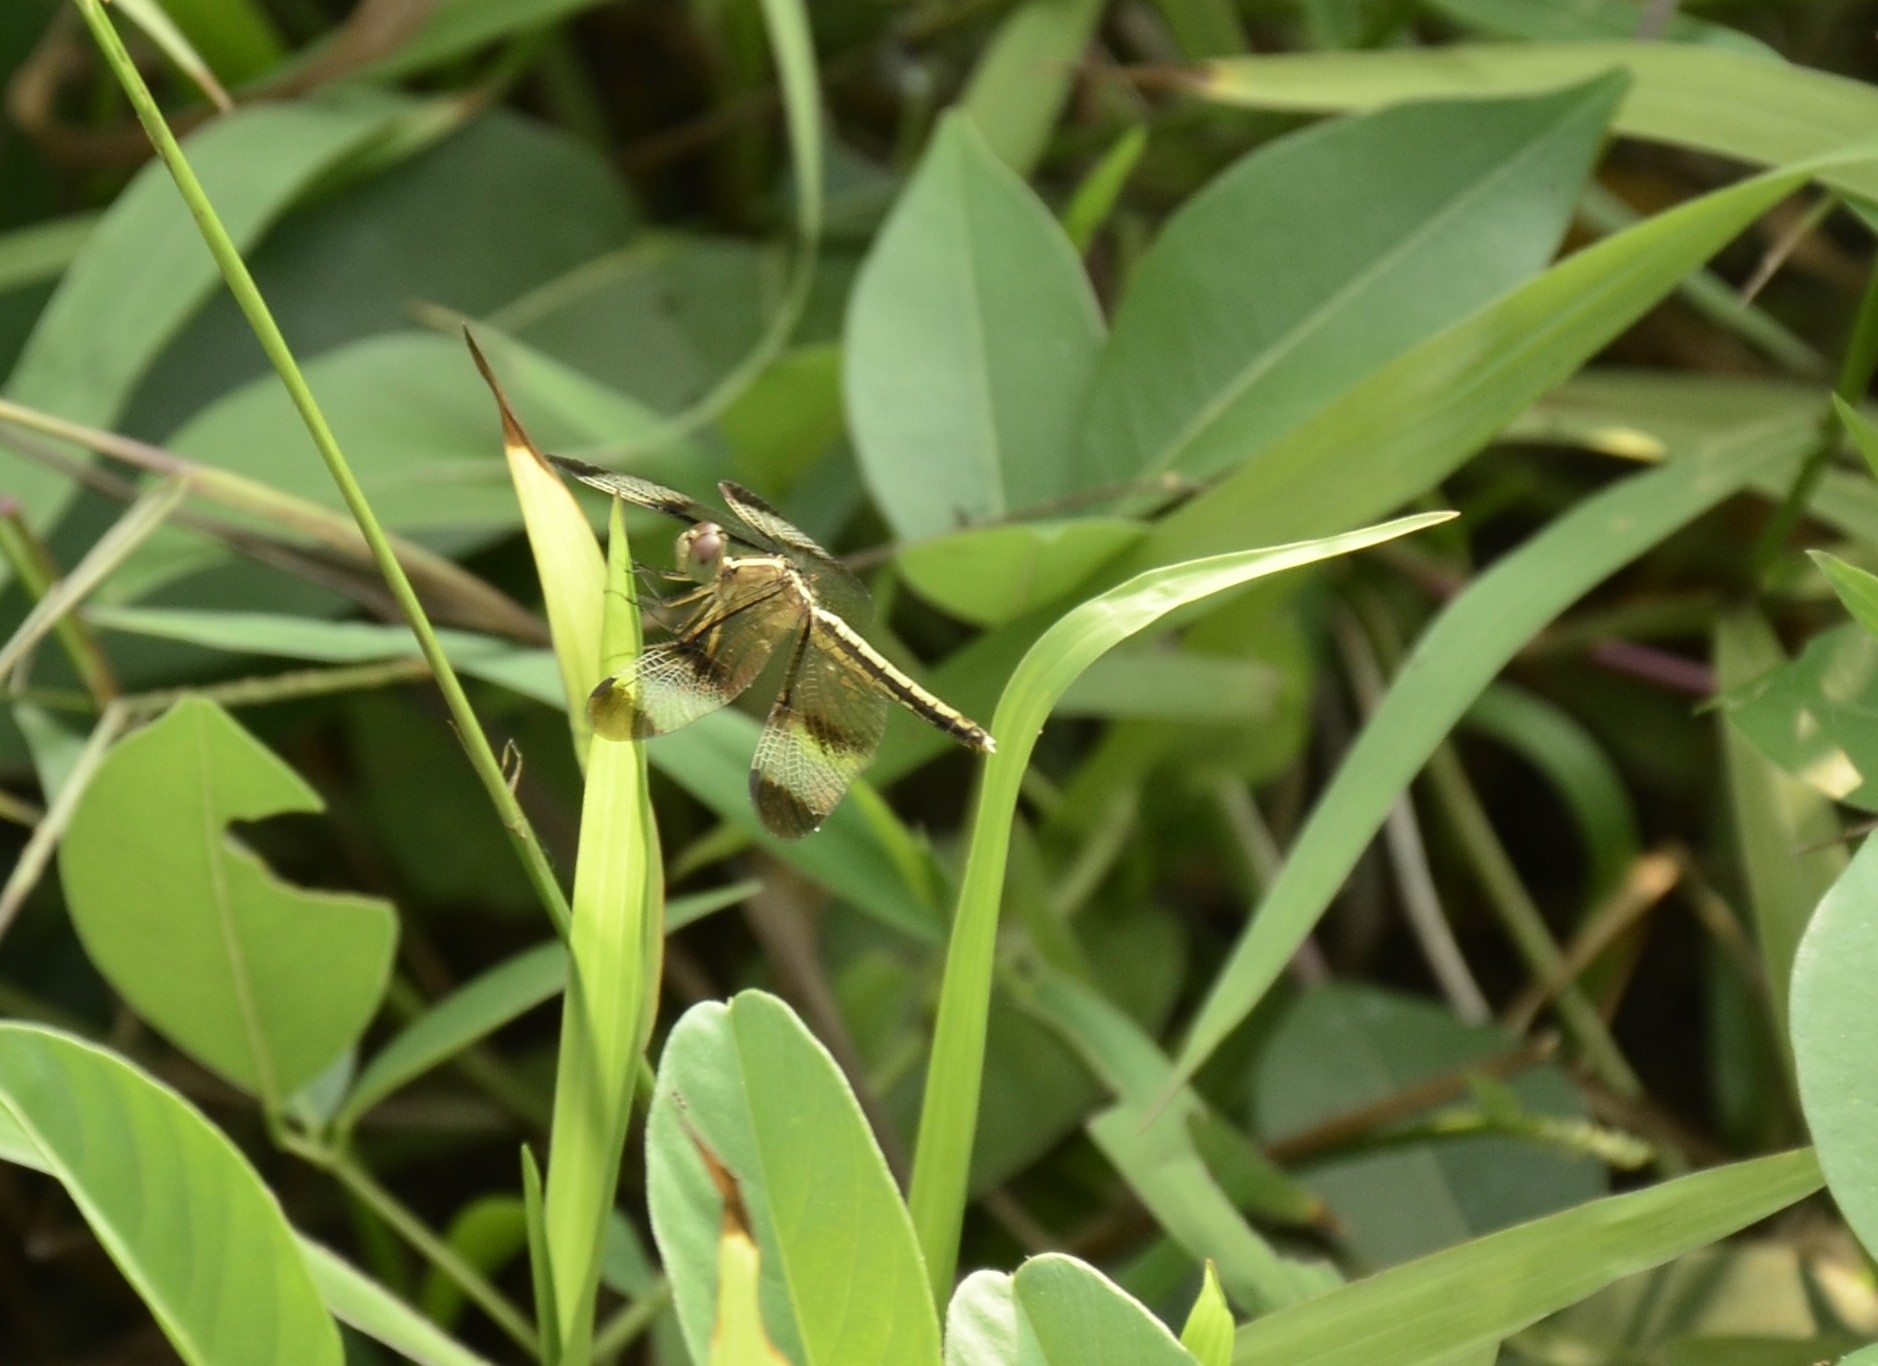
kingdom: Animalia
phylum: Arthropoda
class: Insecta
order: Odonata
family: Libellulidae
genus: Neurothemis
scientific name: Neurothemis tullia
